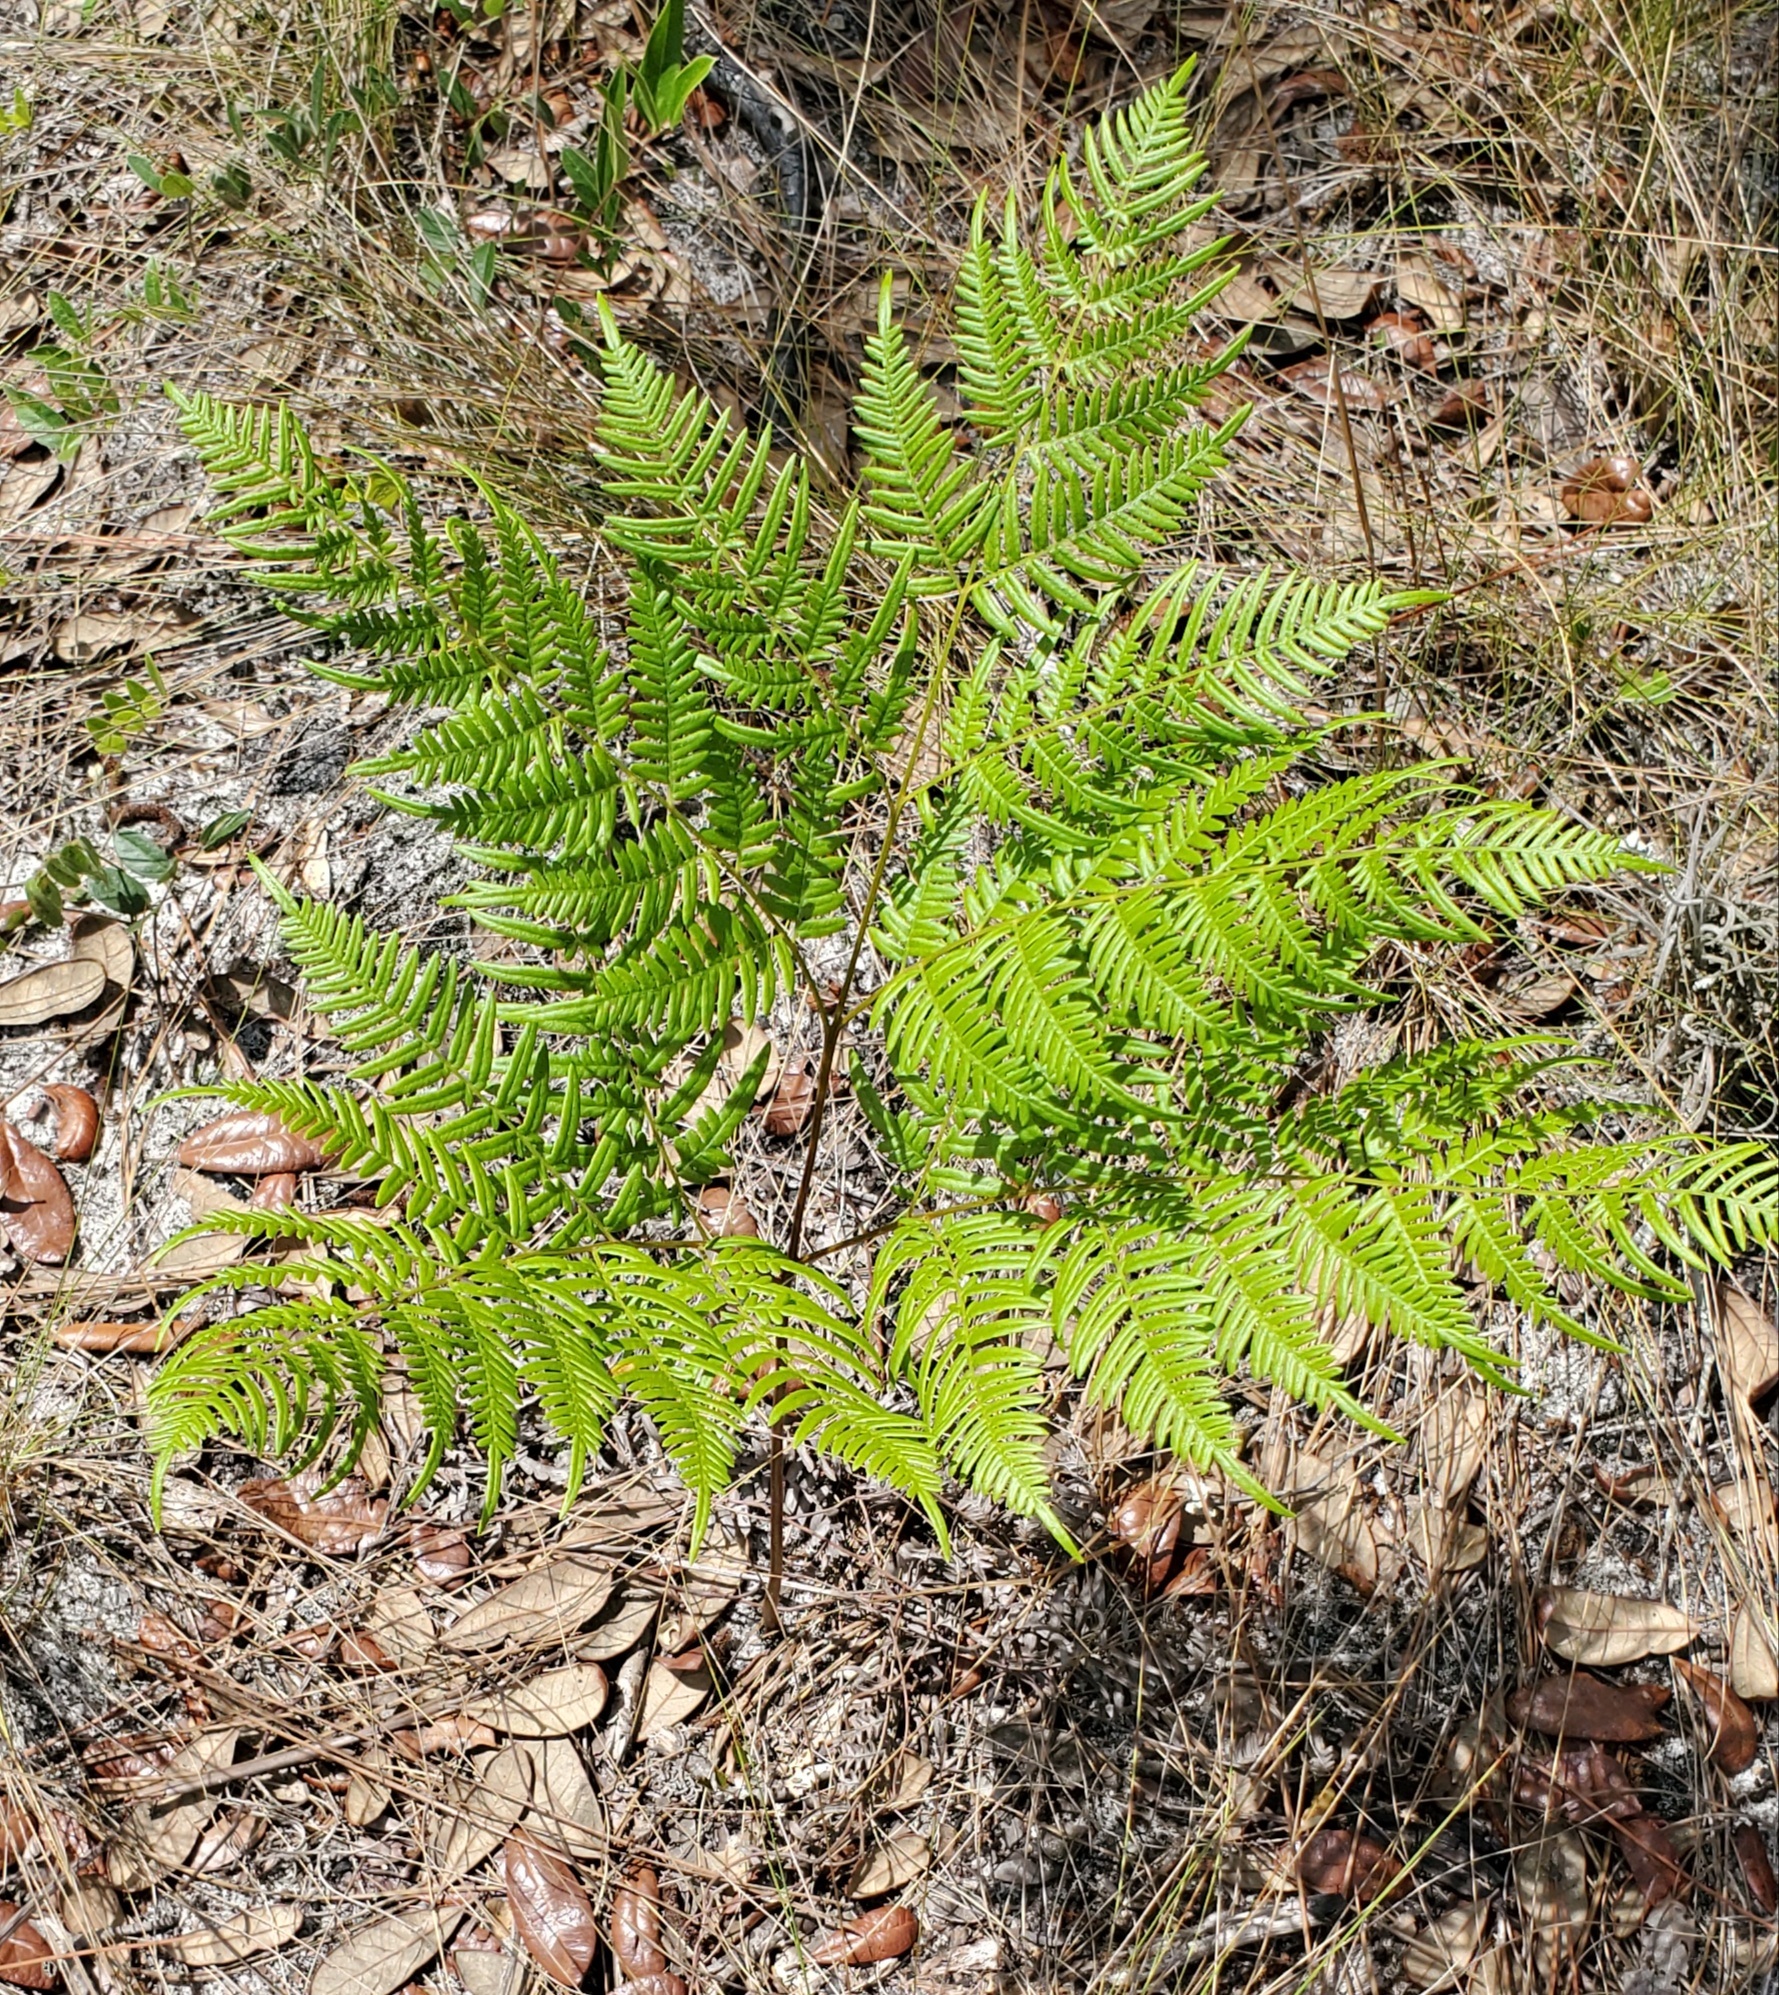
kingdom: Plantae
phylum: Tracheophyta
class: Polypodiopsida
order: Polypodiales
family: Dennstaedtiaceae
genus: Pteridium
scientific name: Pteridium
